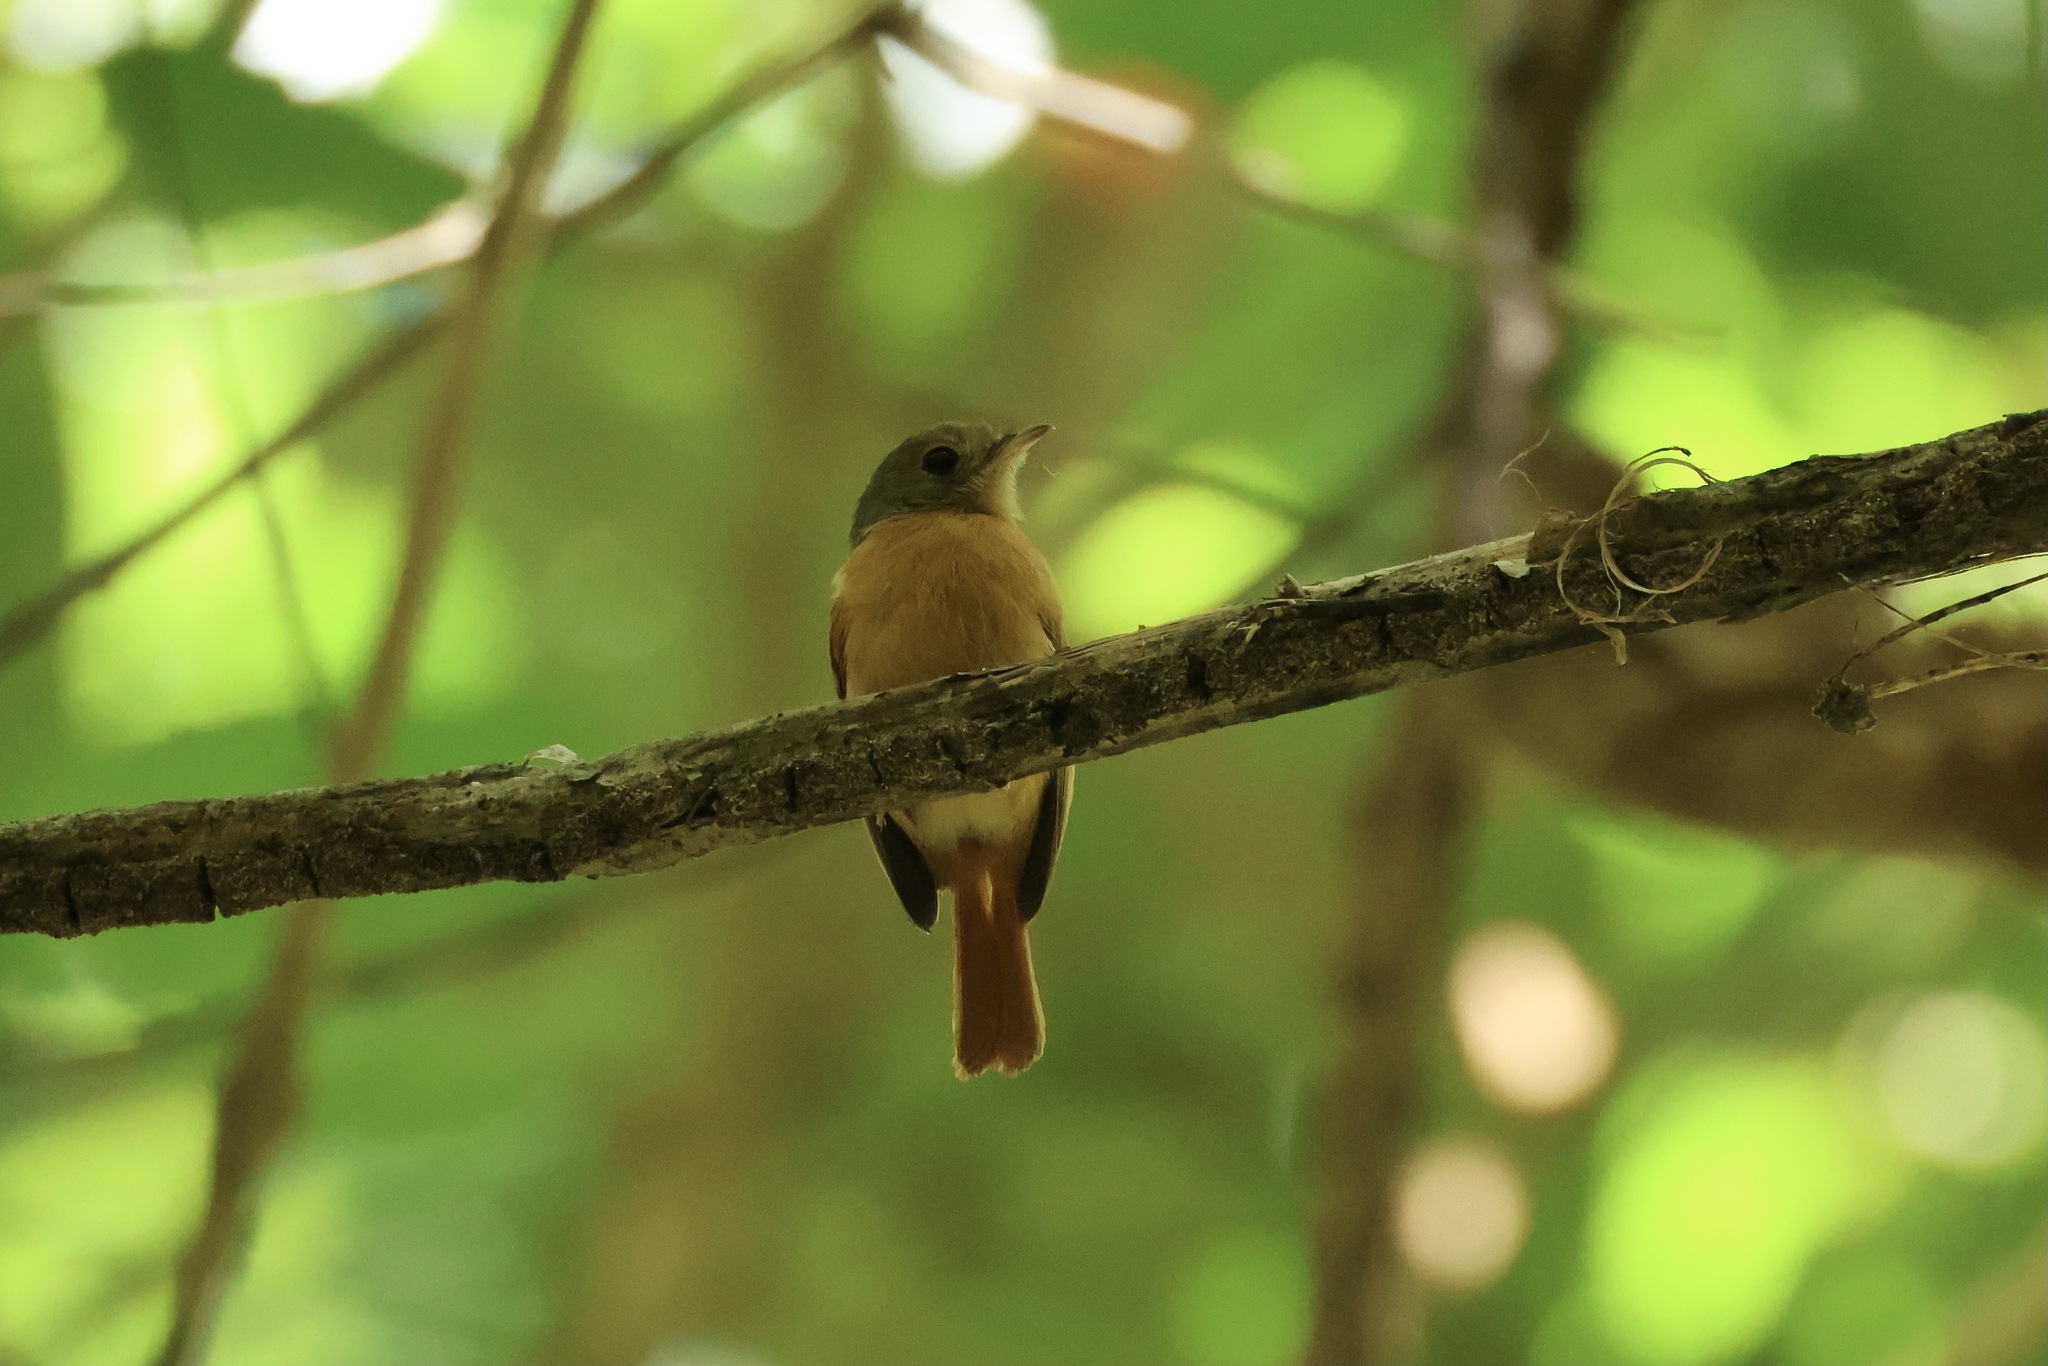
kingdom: Animalia
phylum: Chordata
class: Aves
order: Passeriformes
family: Tyrannidae
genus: Terenotriccus
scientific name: Terenotriccus erythrurus
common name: Ruddy-tailed flycatcher
